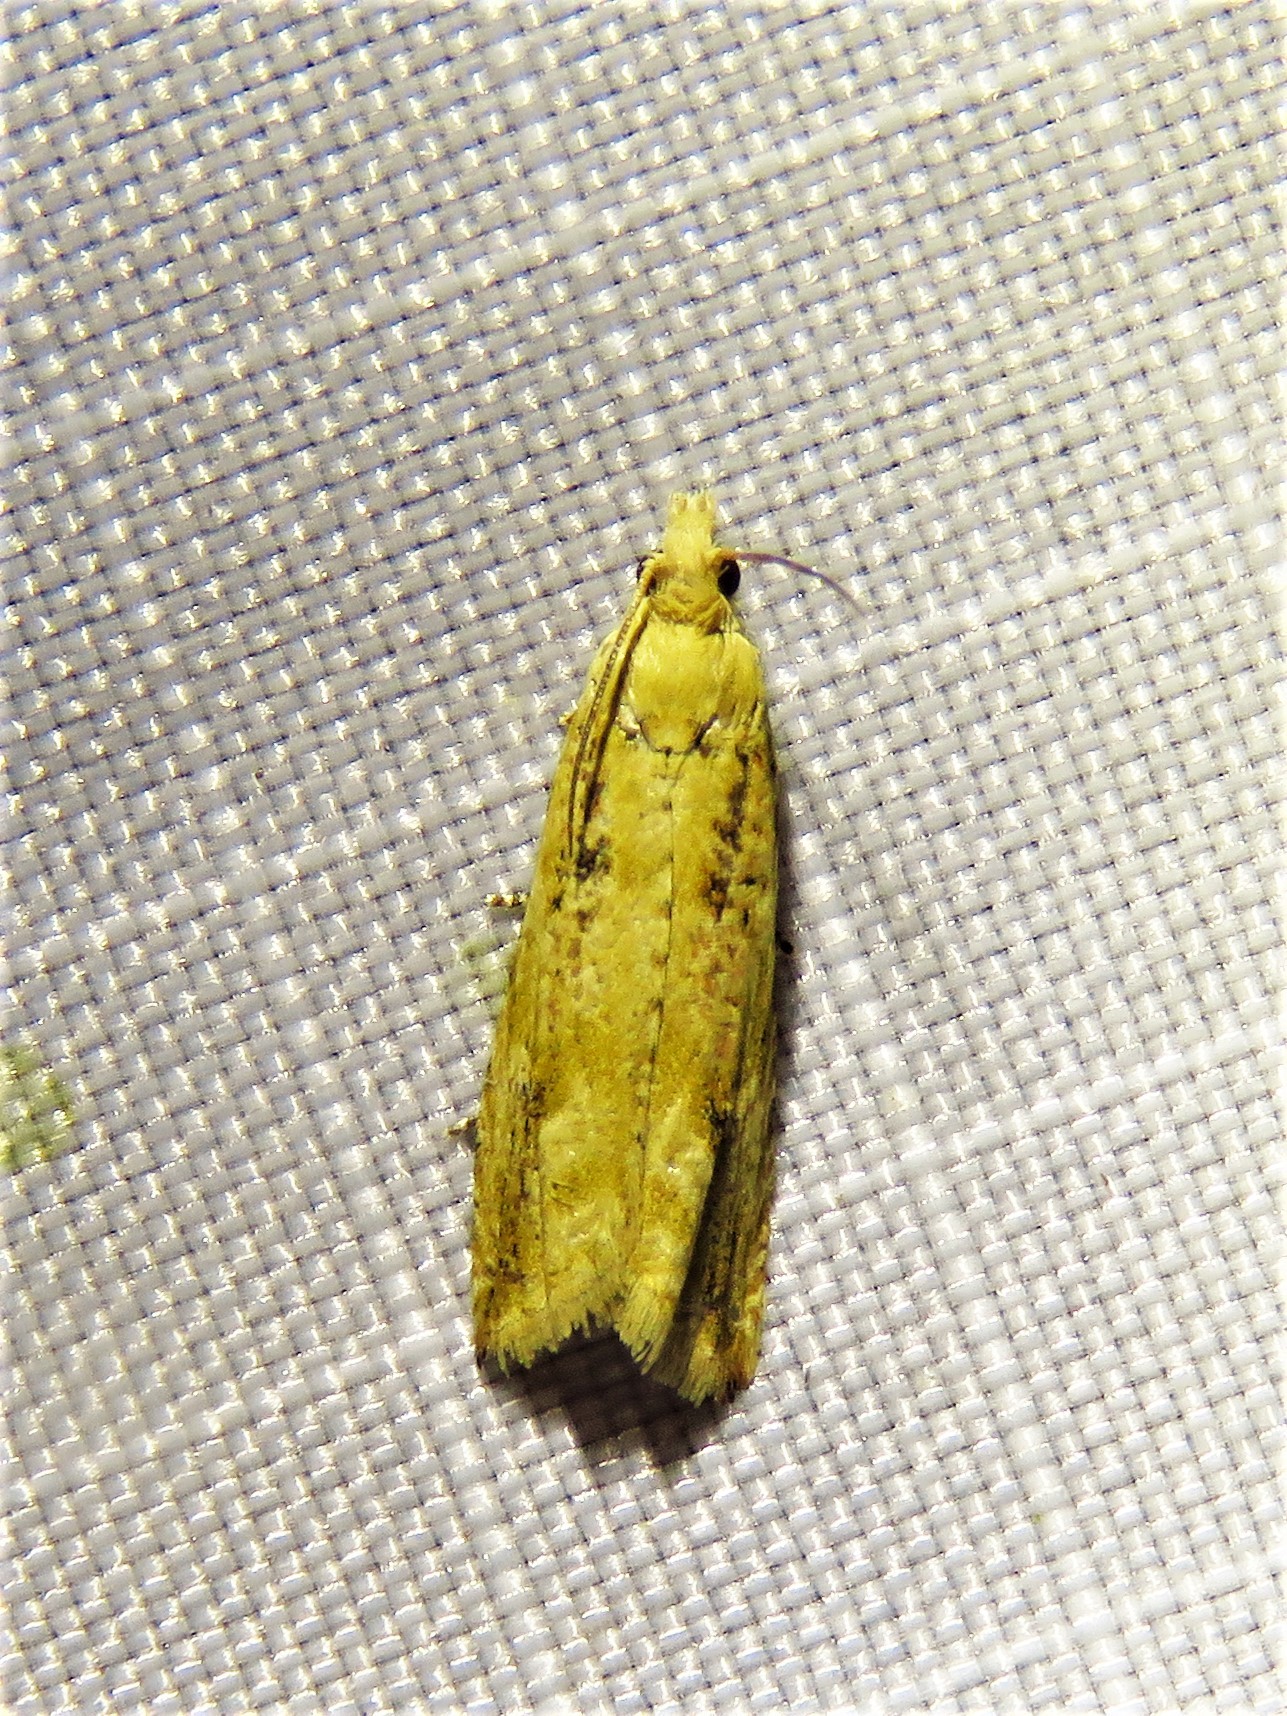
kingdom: Animalia
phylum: Arthropoda
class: Insecta
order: Lepidoptera
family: Tortricidae
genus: Bactra
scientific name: Bactra verutana
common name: Javelin moth
